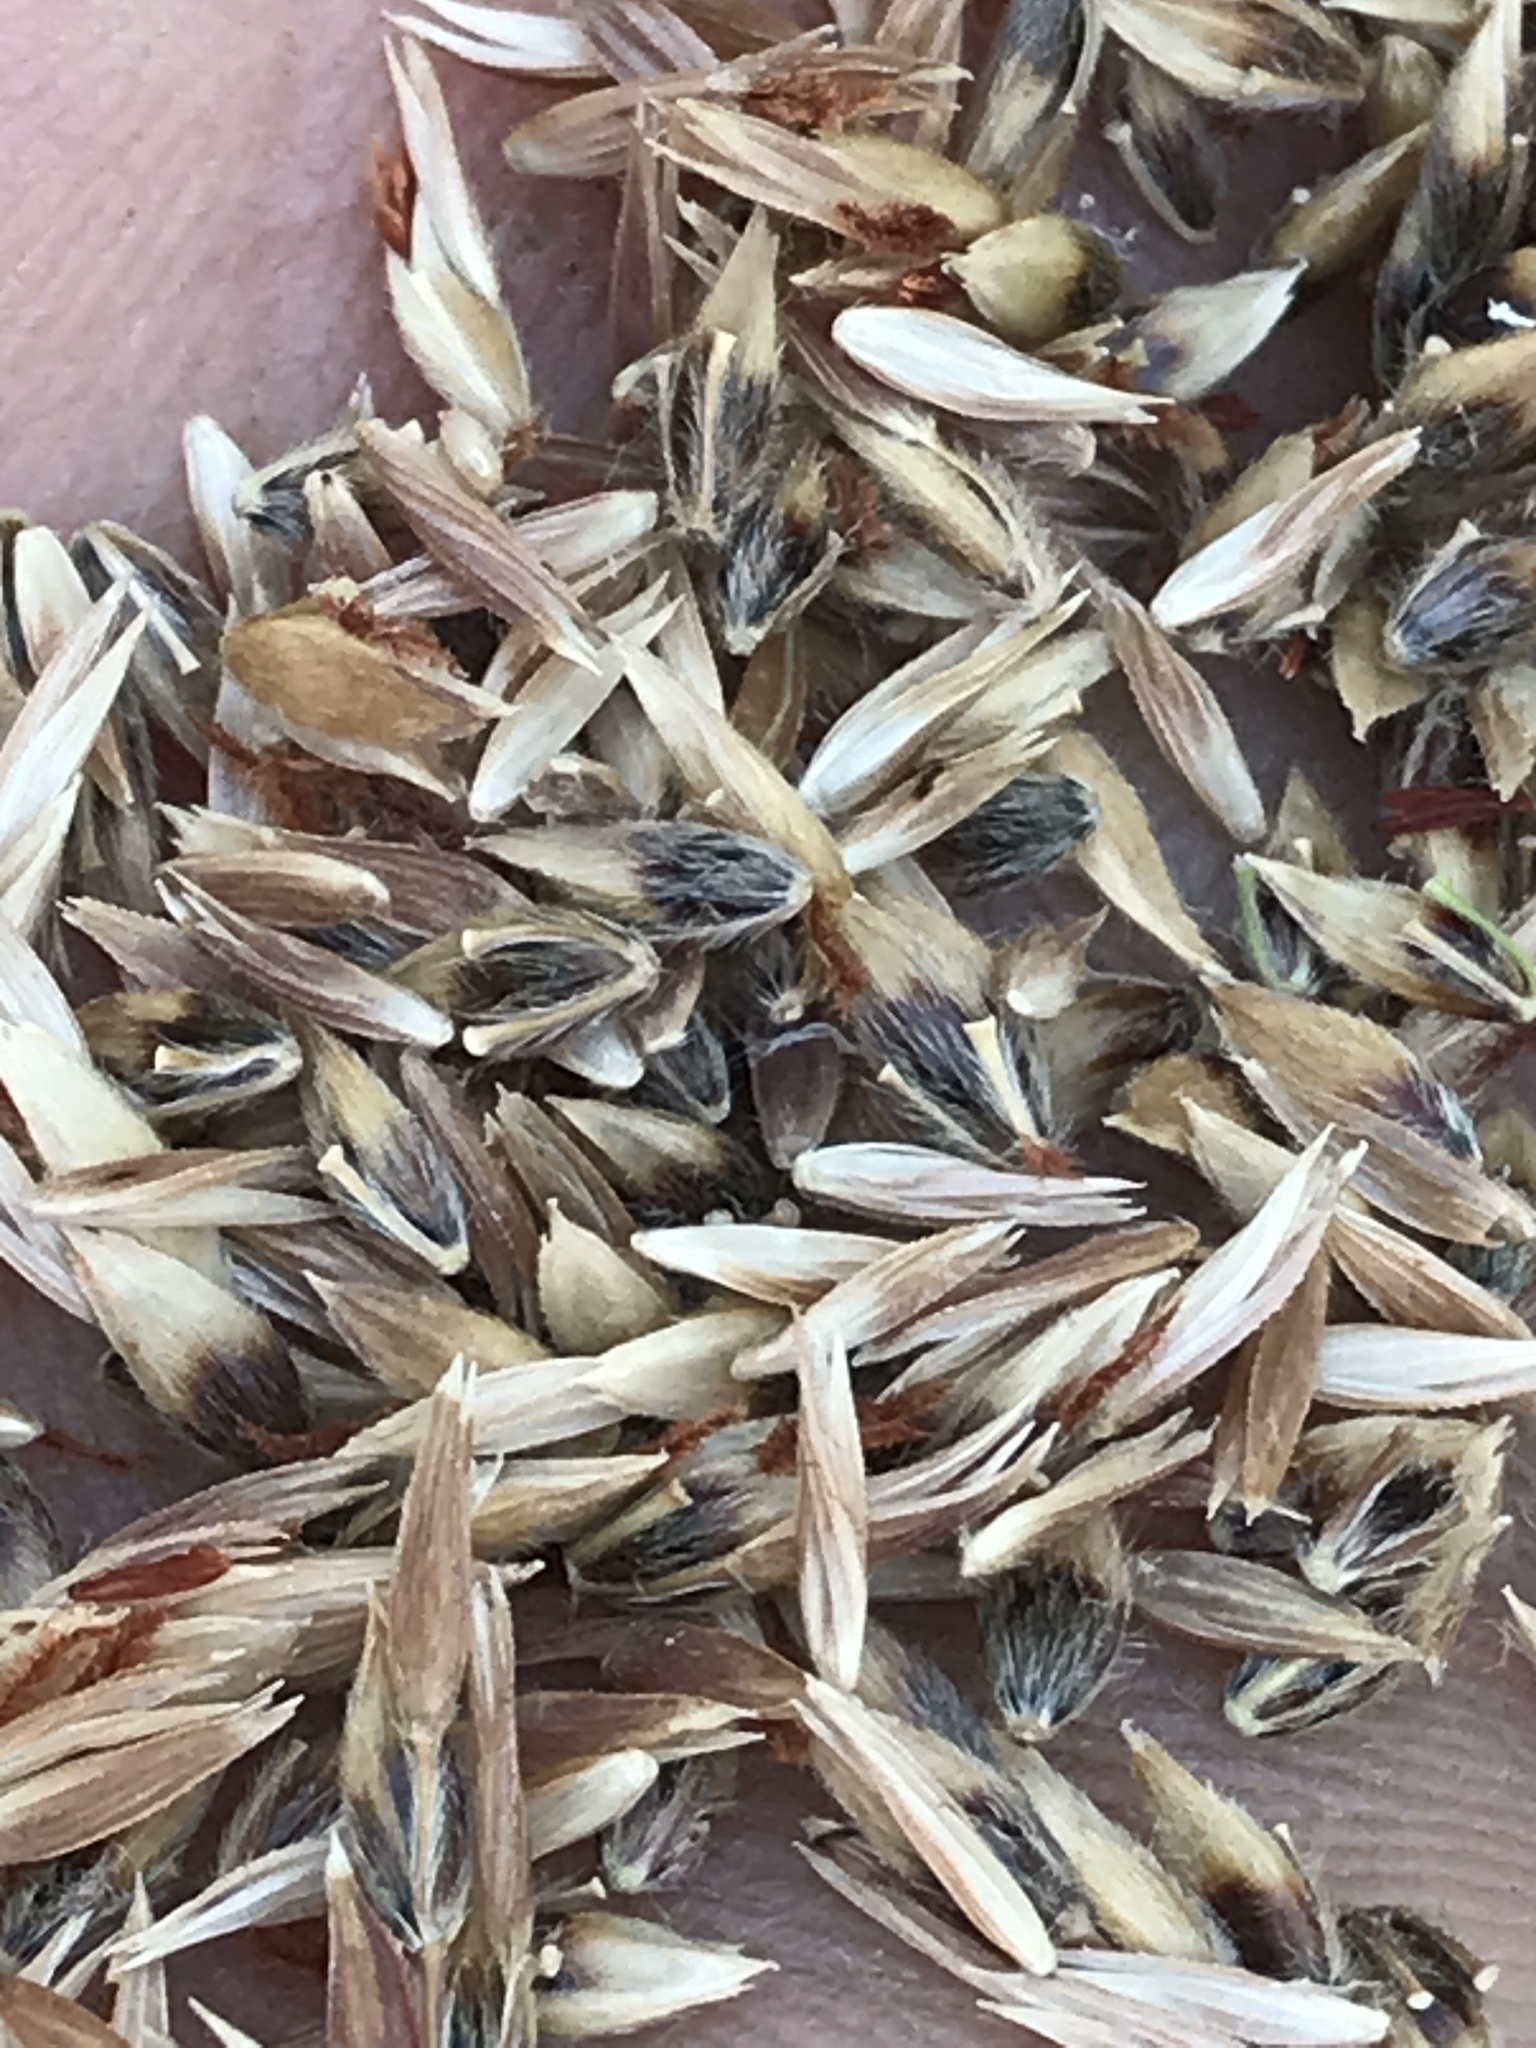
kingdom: Plantae
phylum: Tracheophyta
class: Liliopsida
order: Poales
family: Poaceae
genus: Sorghum
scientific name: Sorghum halepense
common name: Johnson-grass
